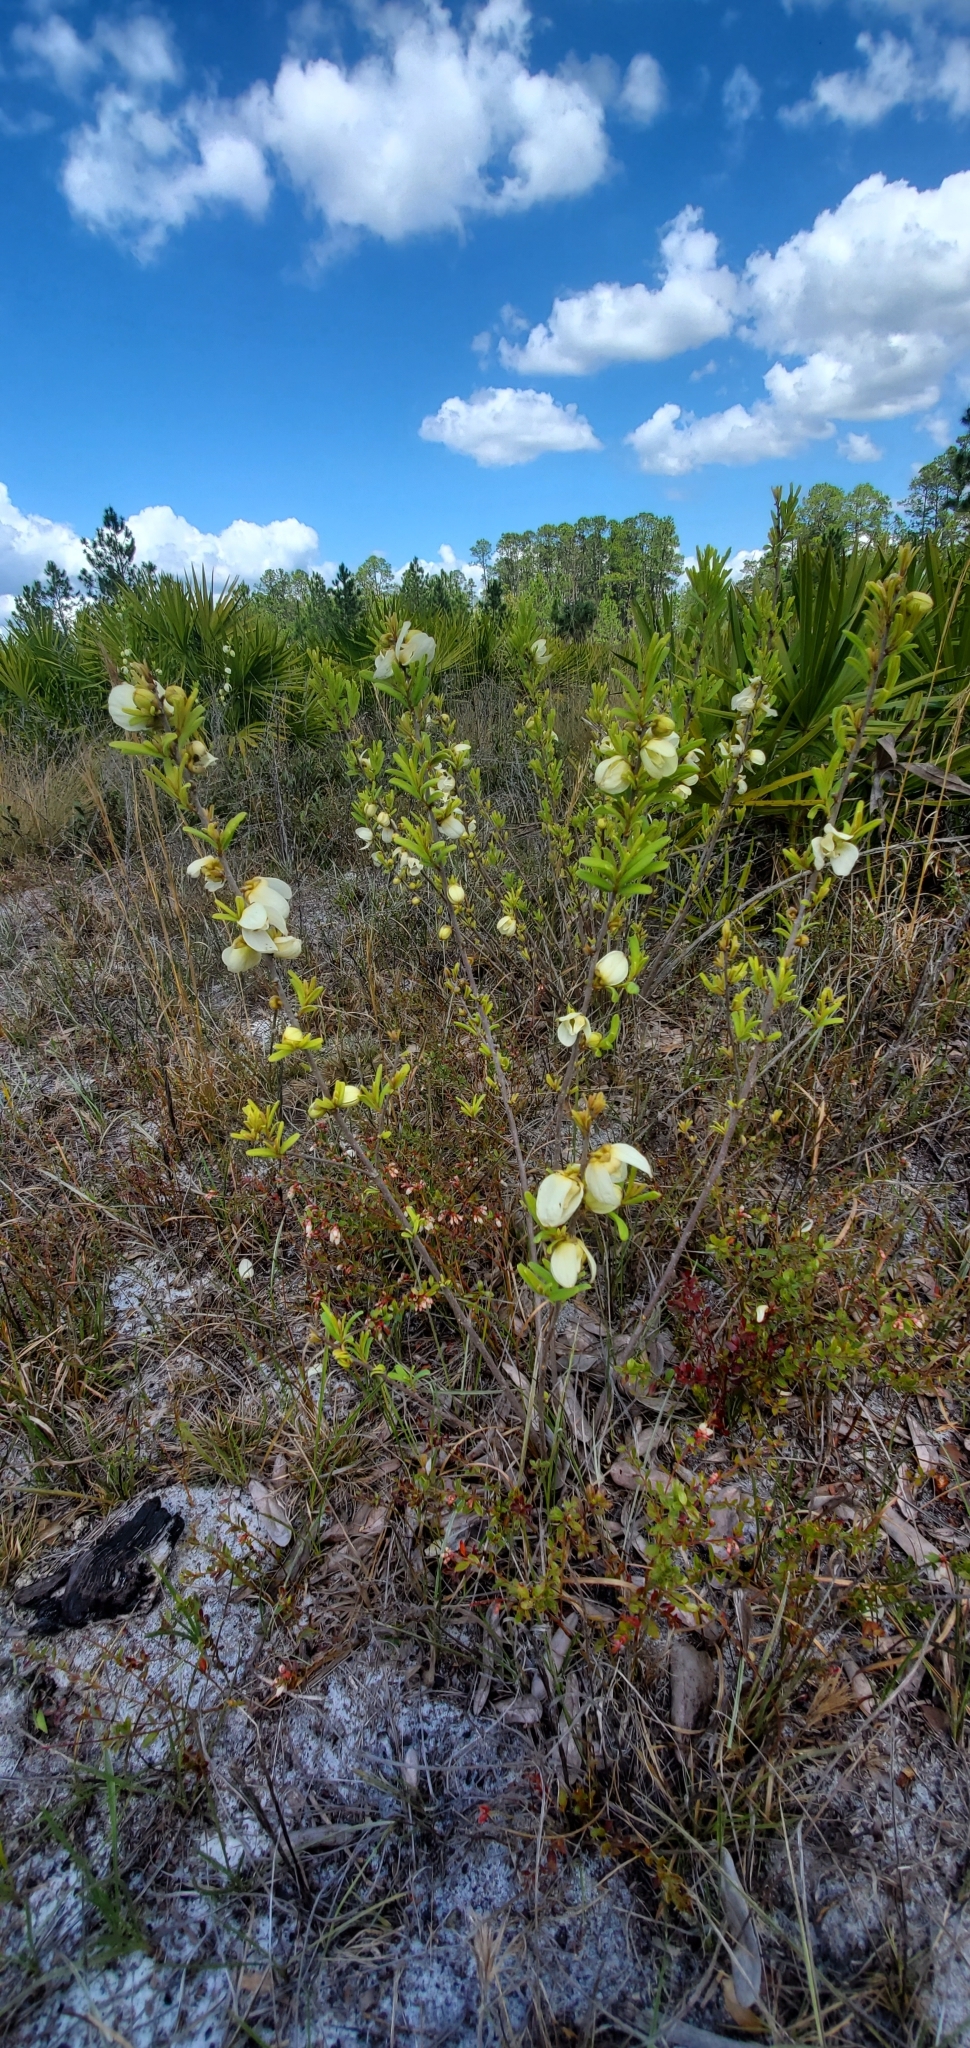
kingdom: Plantae
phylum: Tracheophyta
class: Magnoliopsida
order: Magnoliales
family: Annonaceae
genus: Asimina
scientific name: Asimina speciosa
